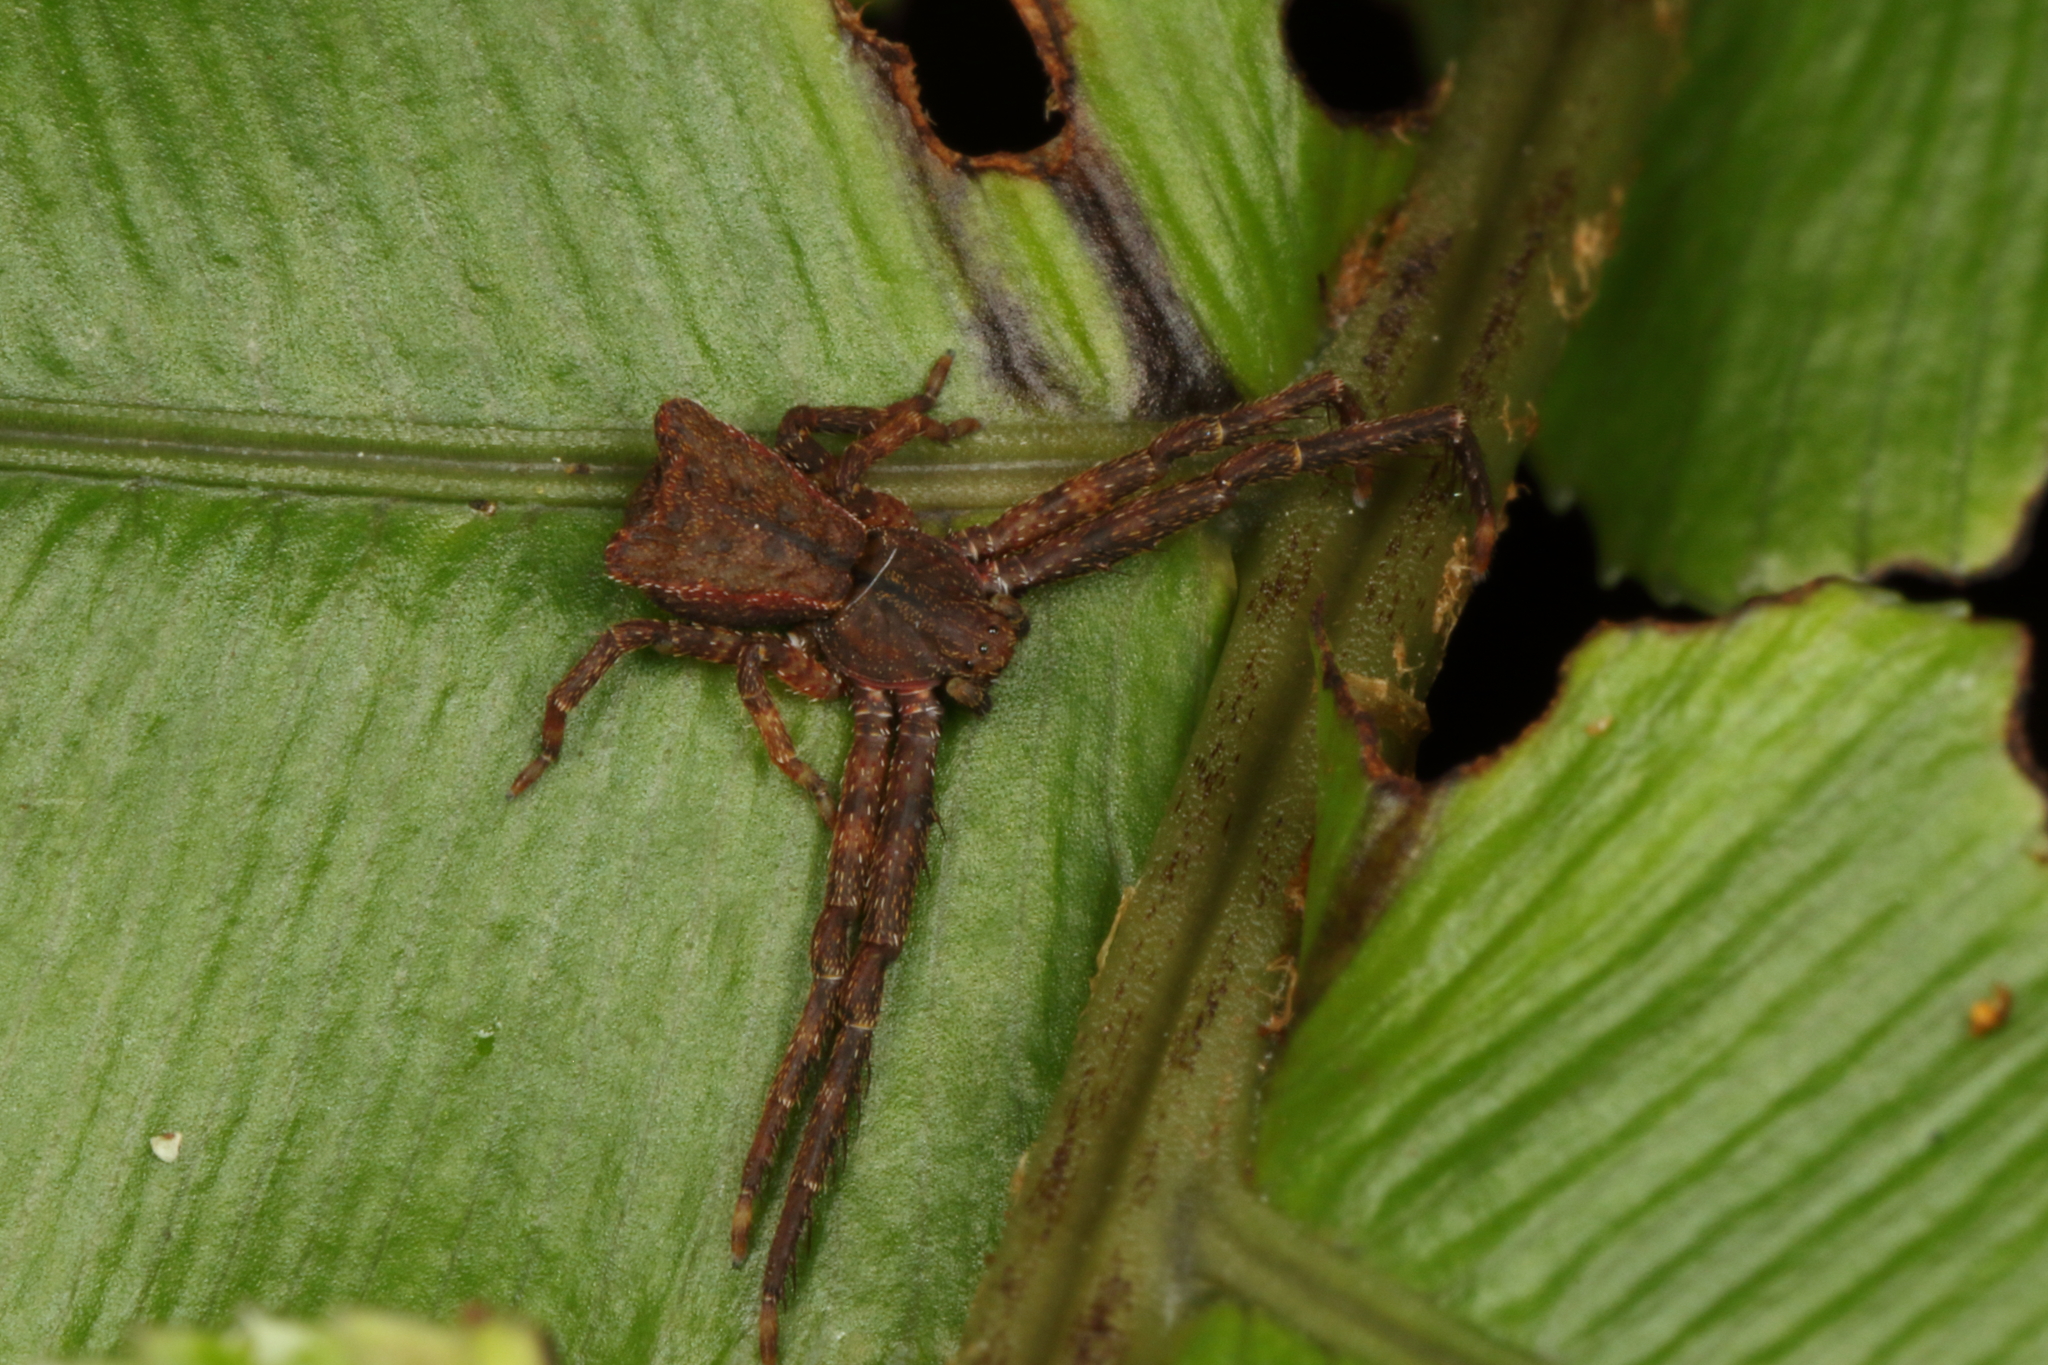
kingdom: Animalia
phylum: Arthropoda
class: Arachnida
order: Araneae
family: Thomisidae
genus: Sidymella
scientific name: Sidymella angularis
